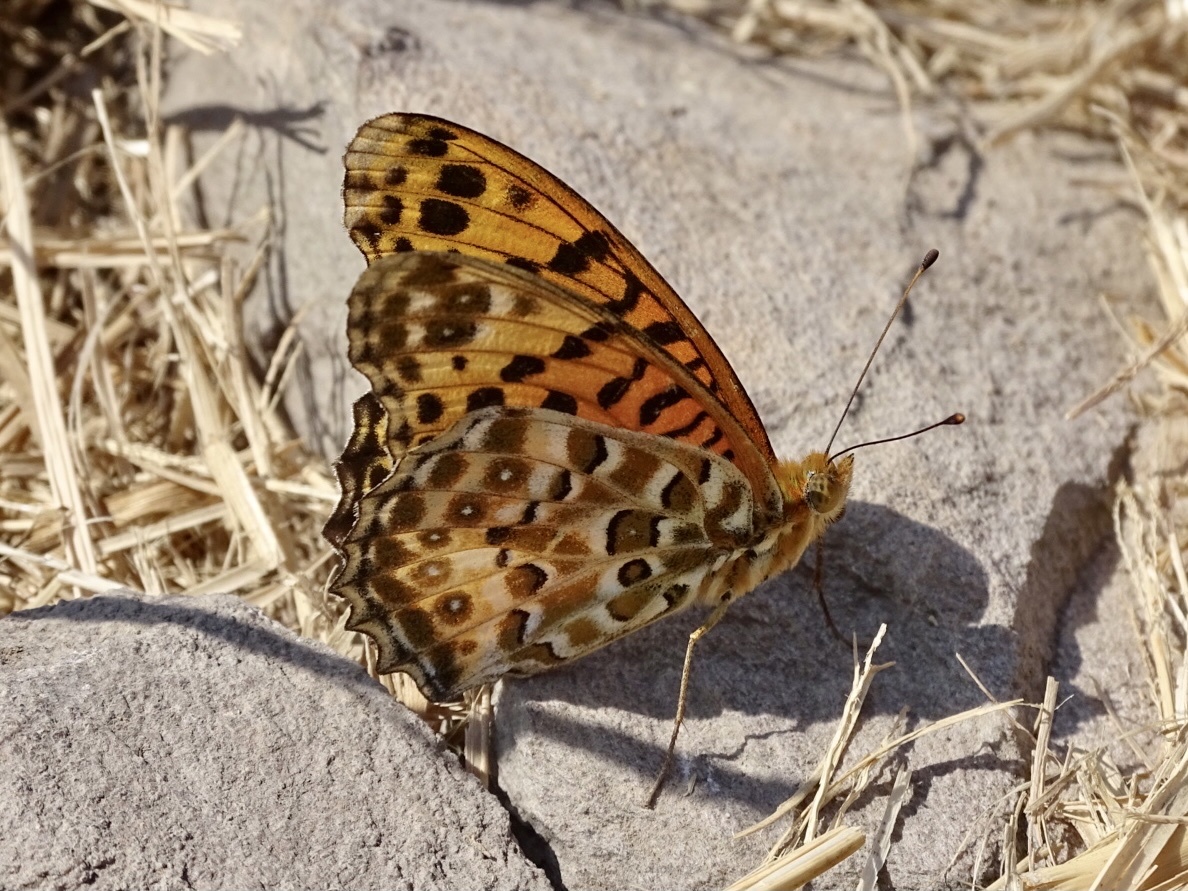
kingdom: Animalia
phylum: Arthropoda
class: Insecta
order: Lepidoptera
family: Nymphalidae
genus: Argynnis
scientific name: Argynnis hyperbius
